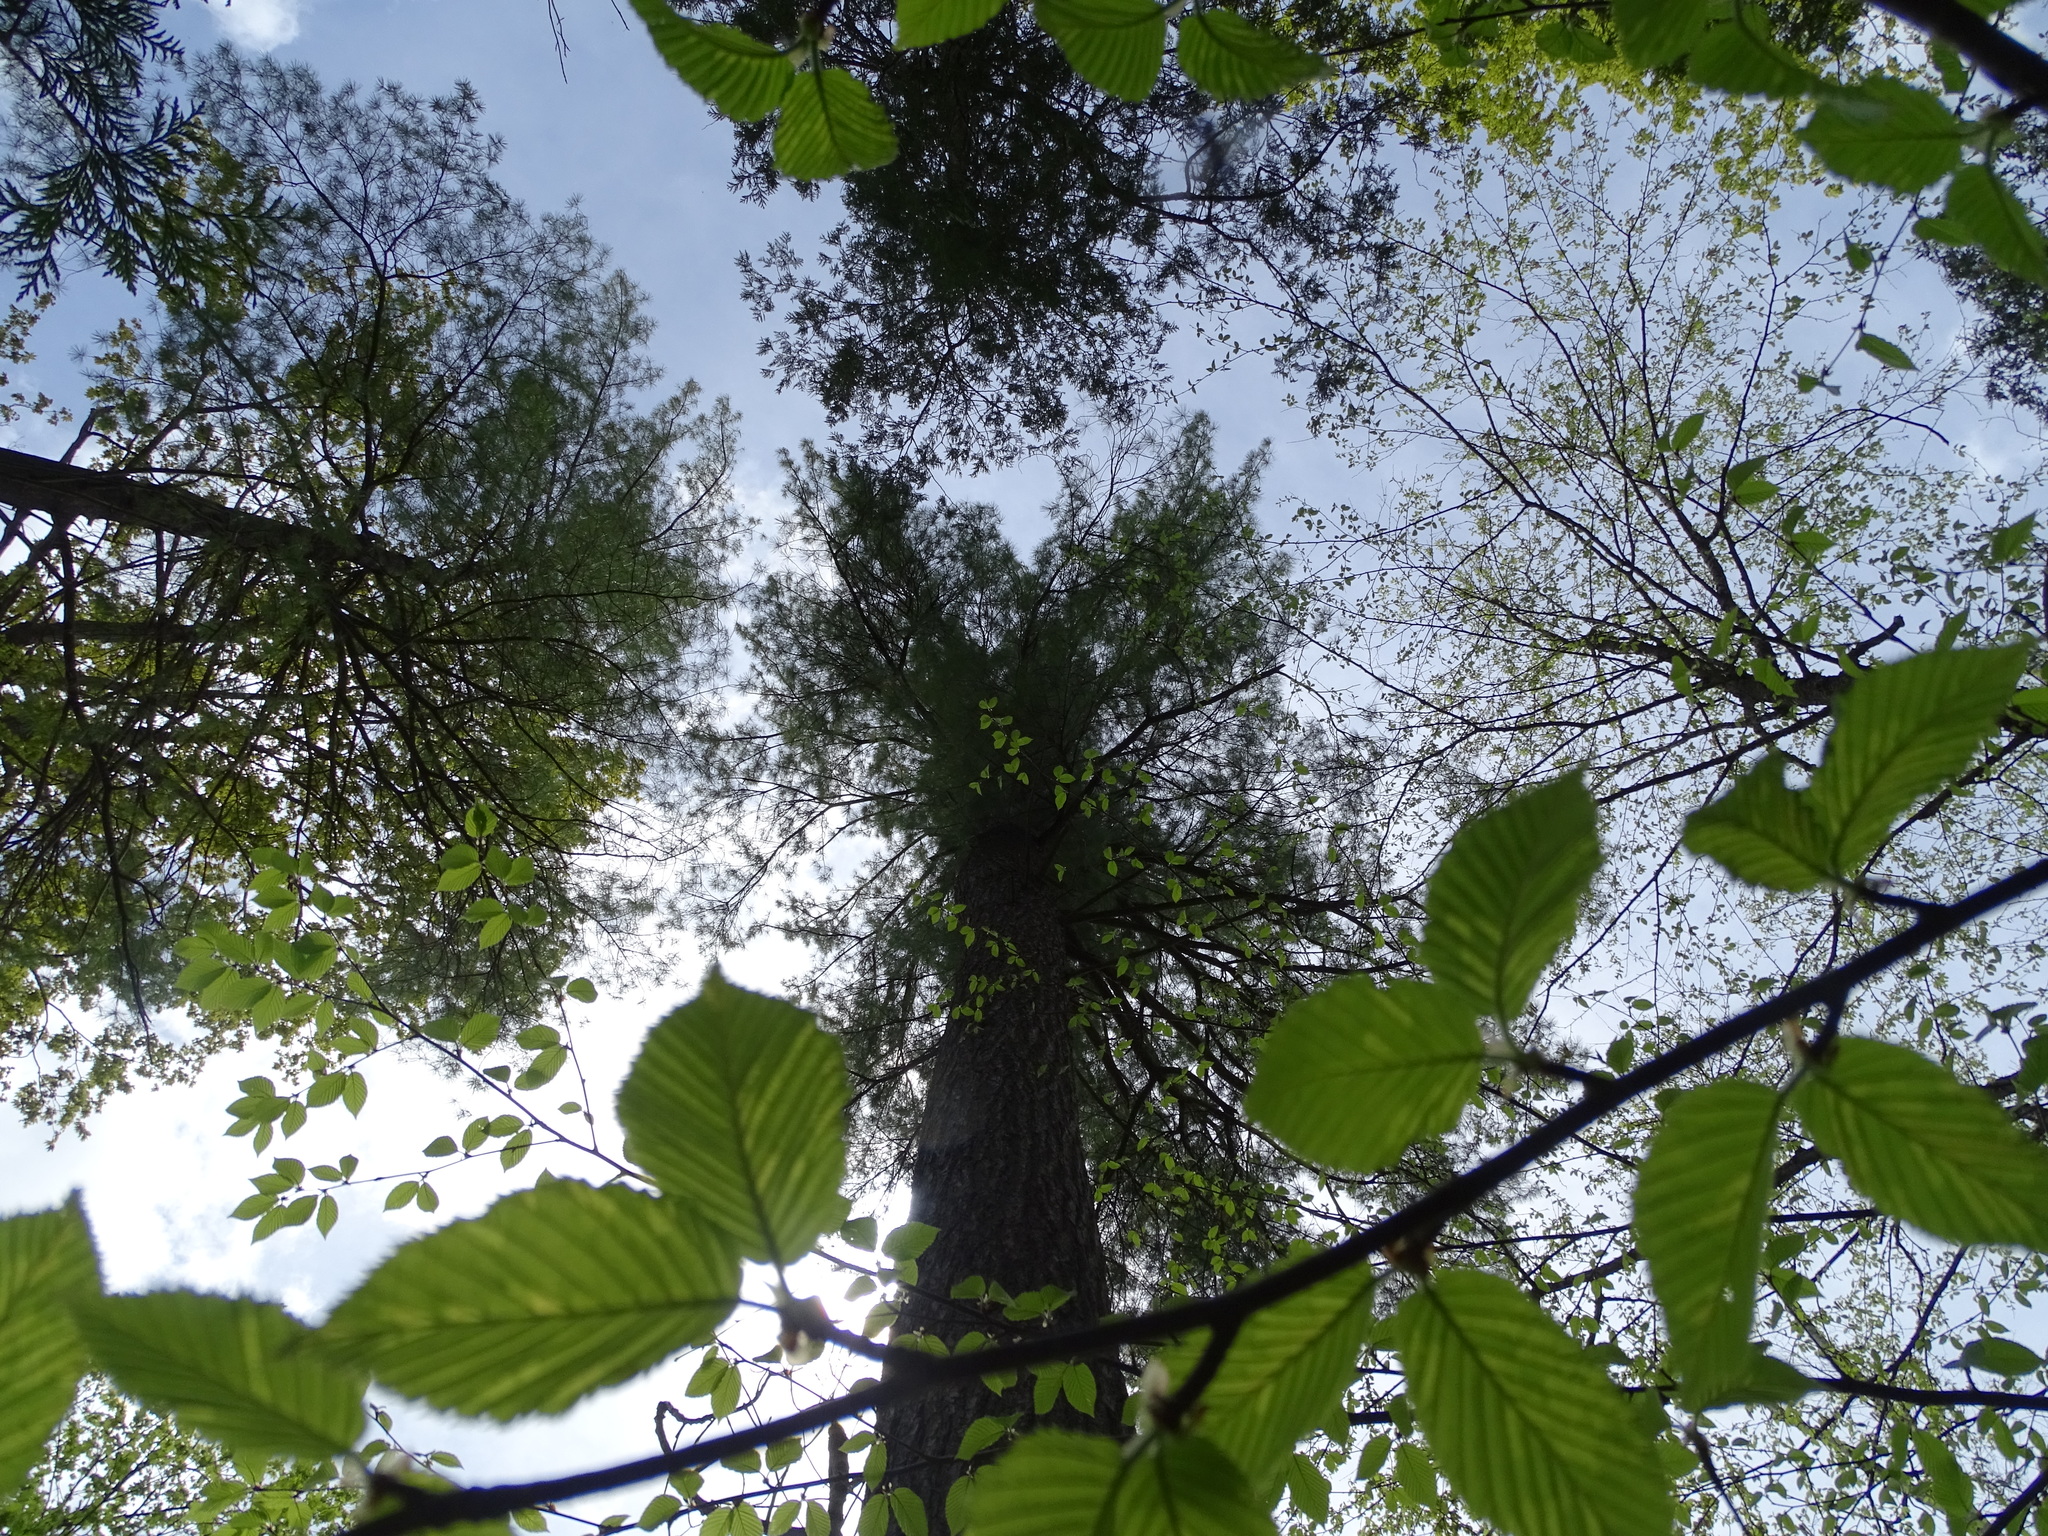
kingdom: Plantae
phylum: Tracheophyta
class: Pinopsida
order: Pinales
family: Pinaceae
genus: Pinus
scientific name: Pinus strobus
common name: Weymouth pine
